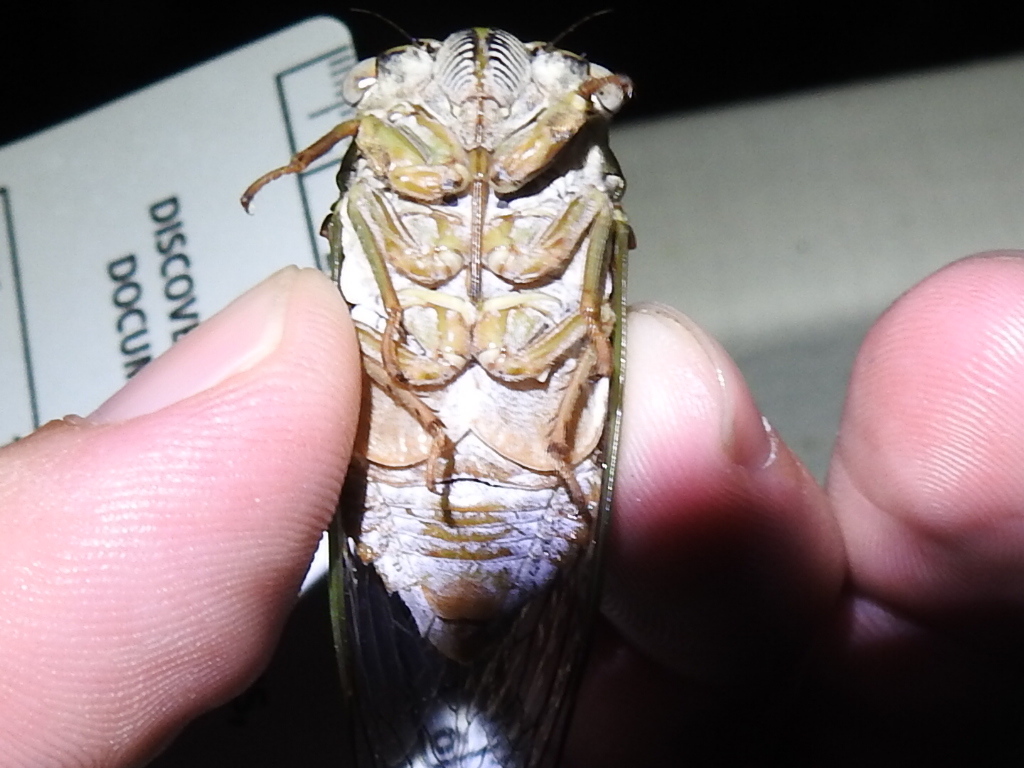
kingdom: Animalia
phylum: Arthropoda
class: Insecta
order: Hemiptera
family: Cicadidae
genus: Megatibicen
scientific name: Megatibicen resh
